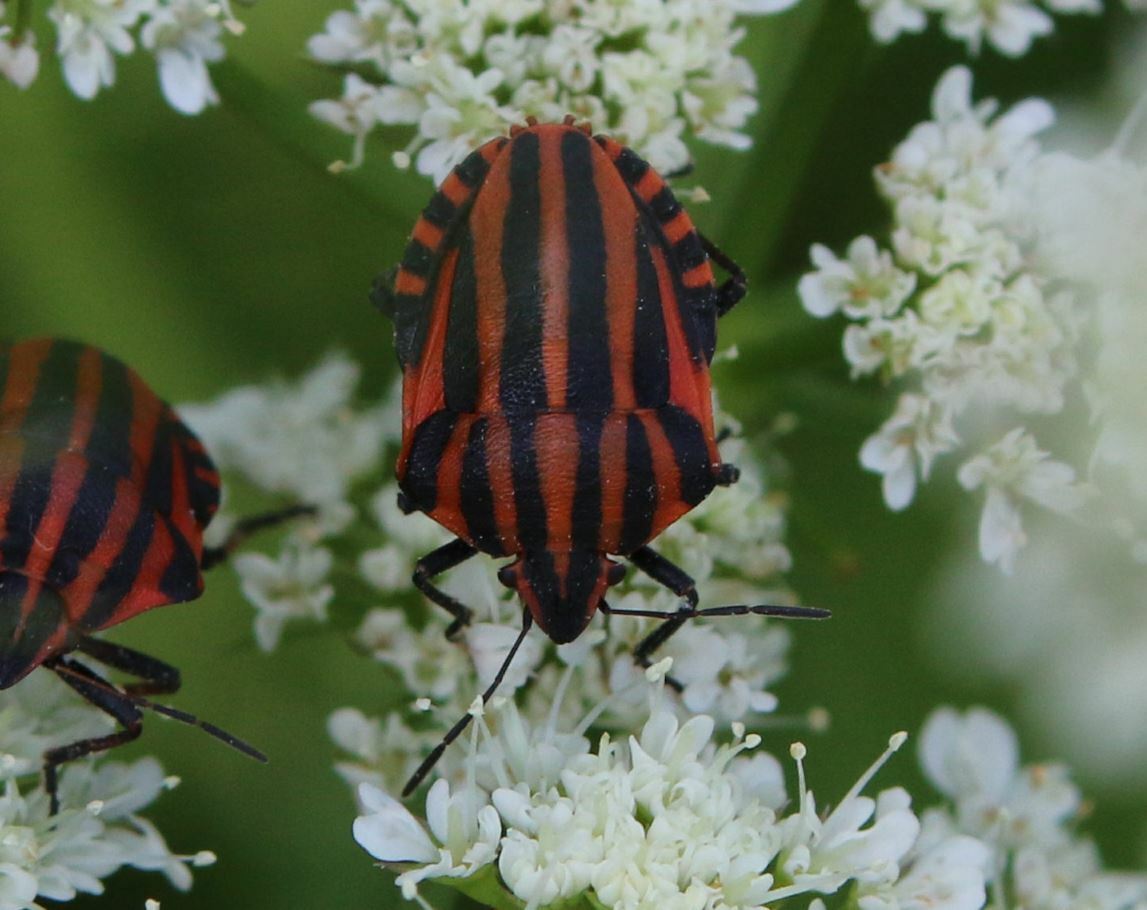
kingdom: Animalia
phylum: Arthropoda
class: Insecta
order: Hemiptera
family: Pentatomidae
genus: Graphosoma
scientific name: Graphosoma italicum
